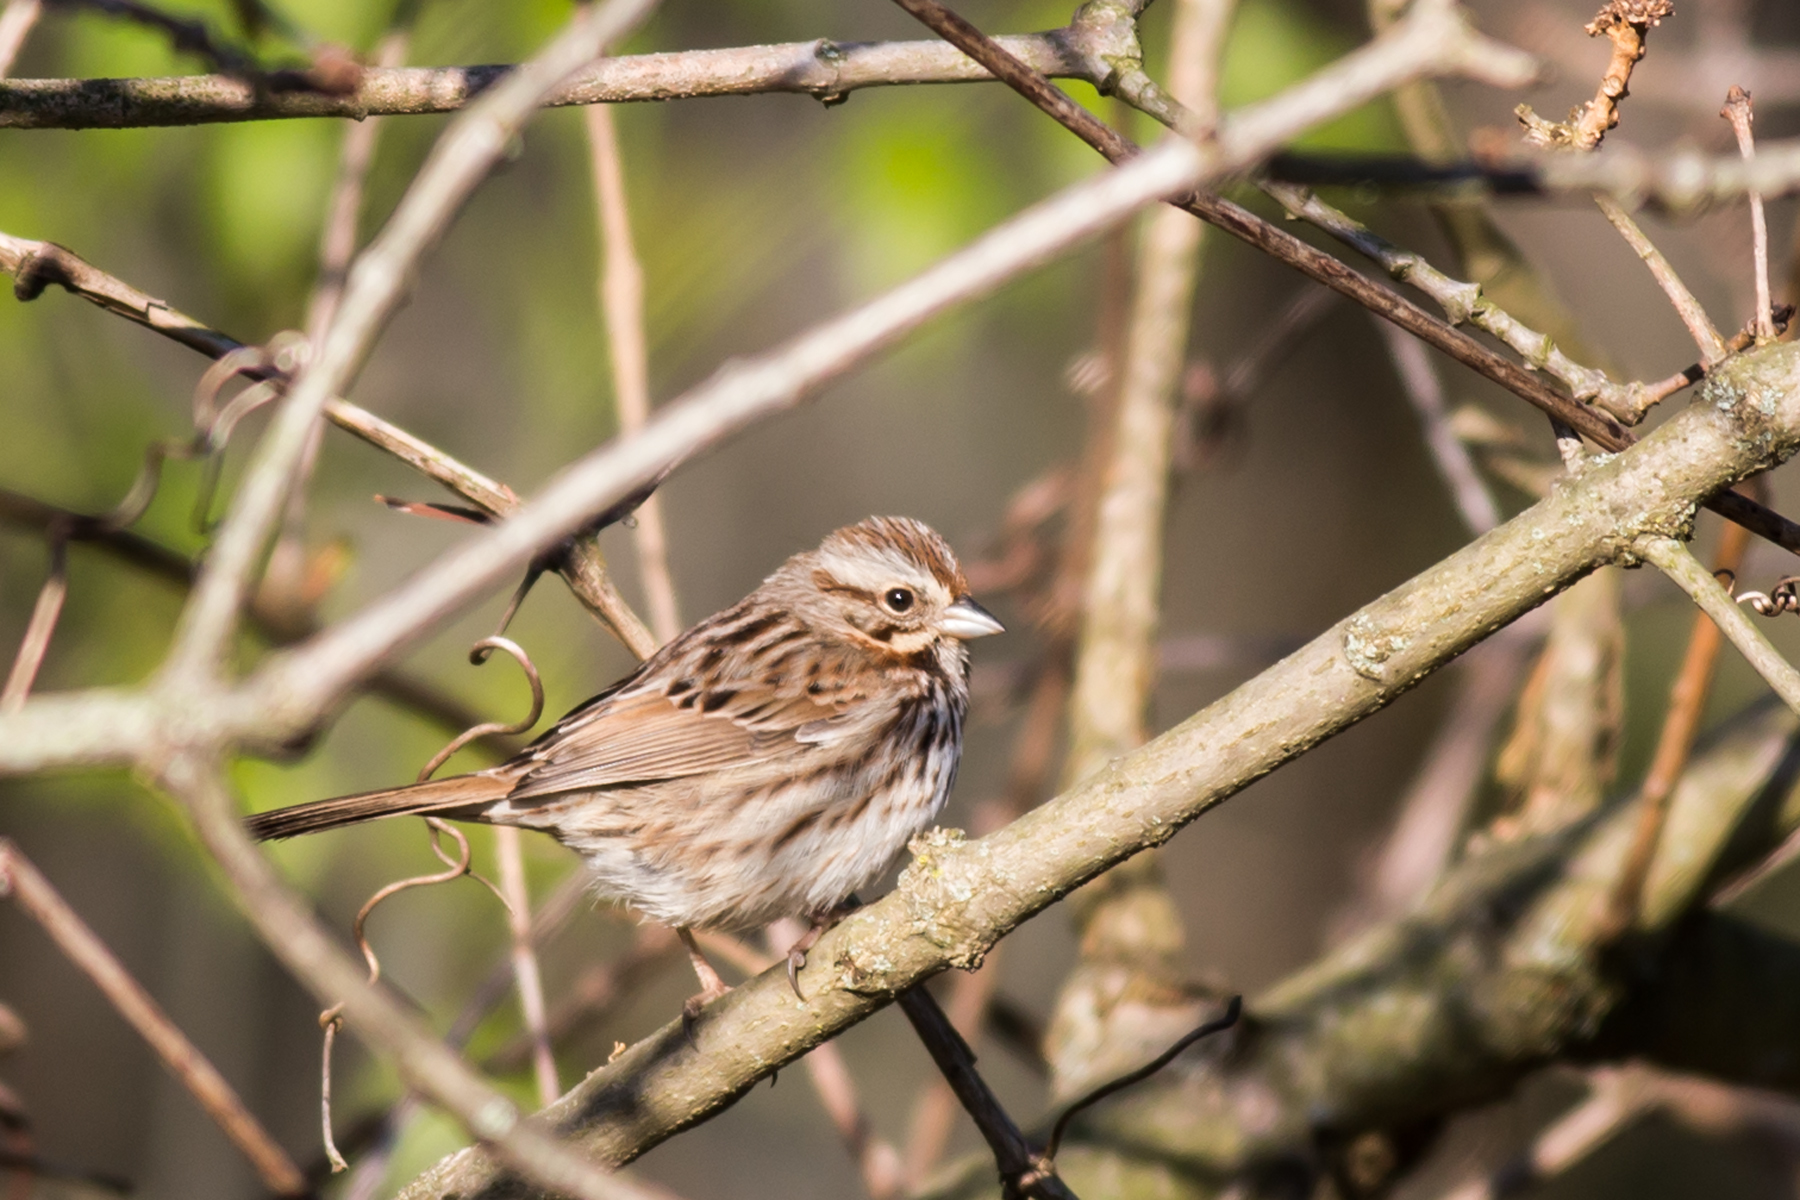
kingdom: Animalia
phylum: Chordata
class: Aves
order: Passeriformes
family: Passerellidae
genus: Melospiza
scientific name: Melospiza melodia
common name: Song sparrow
